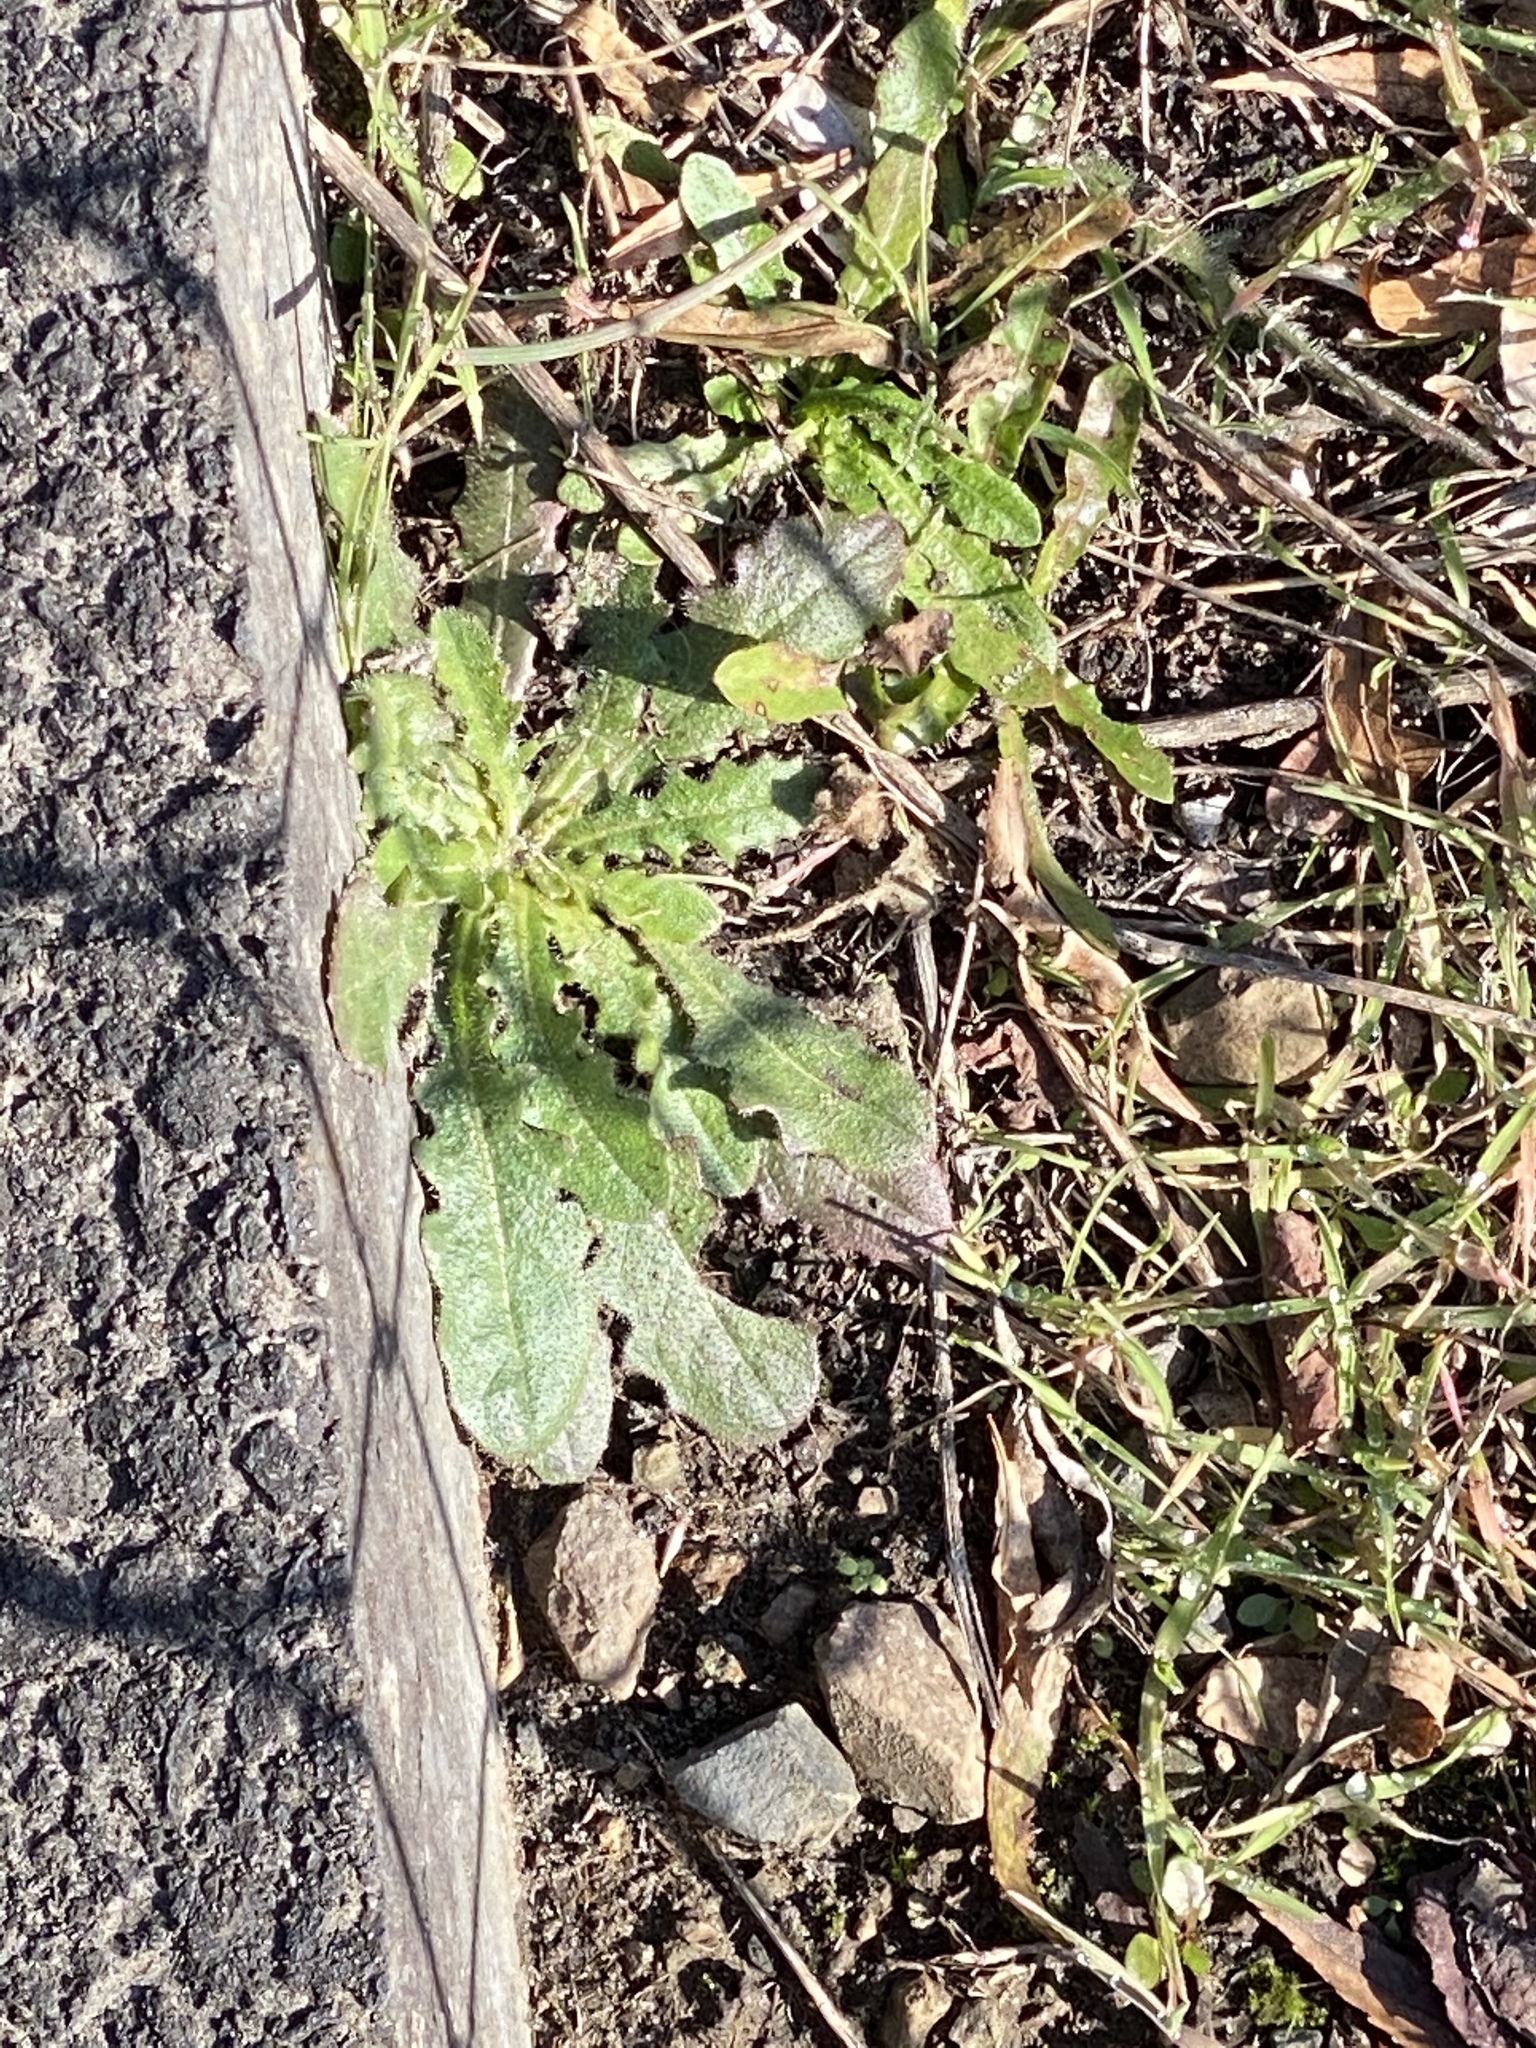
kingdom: Plantae
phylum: Tracheophyta
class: Magnoliopsida
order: Asterales
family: Asteraceae
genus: Hypochaeris
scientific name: Hypochaeris radicata
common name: Flatweed
